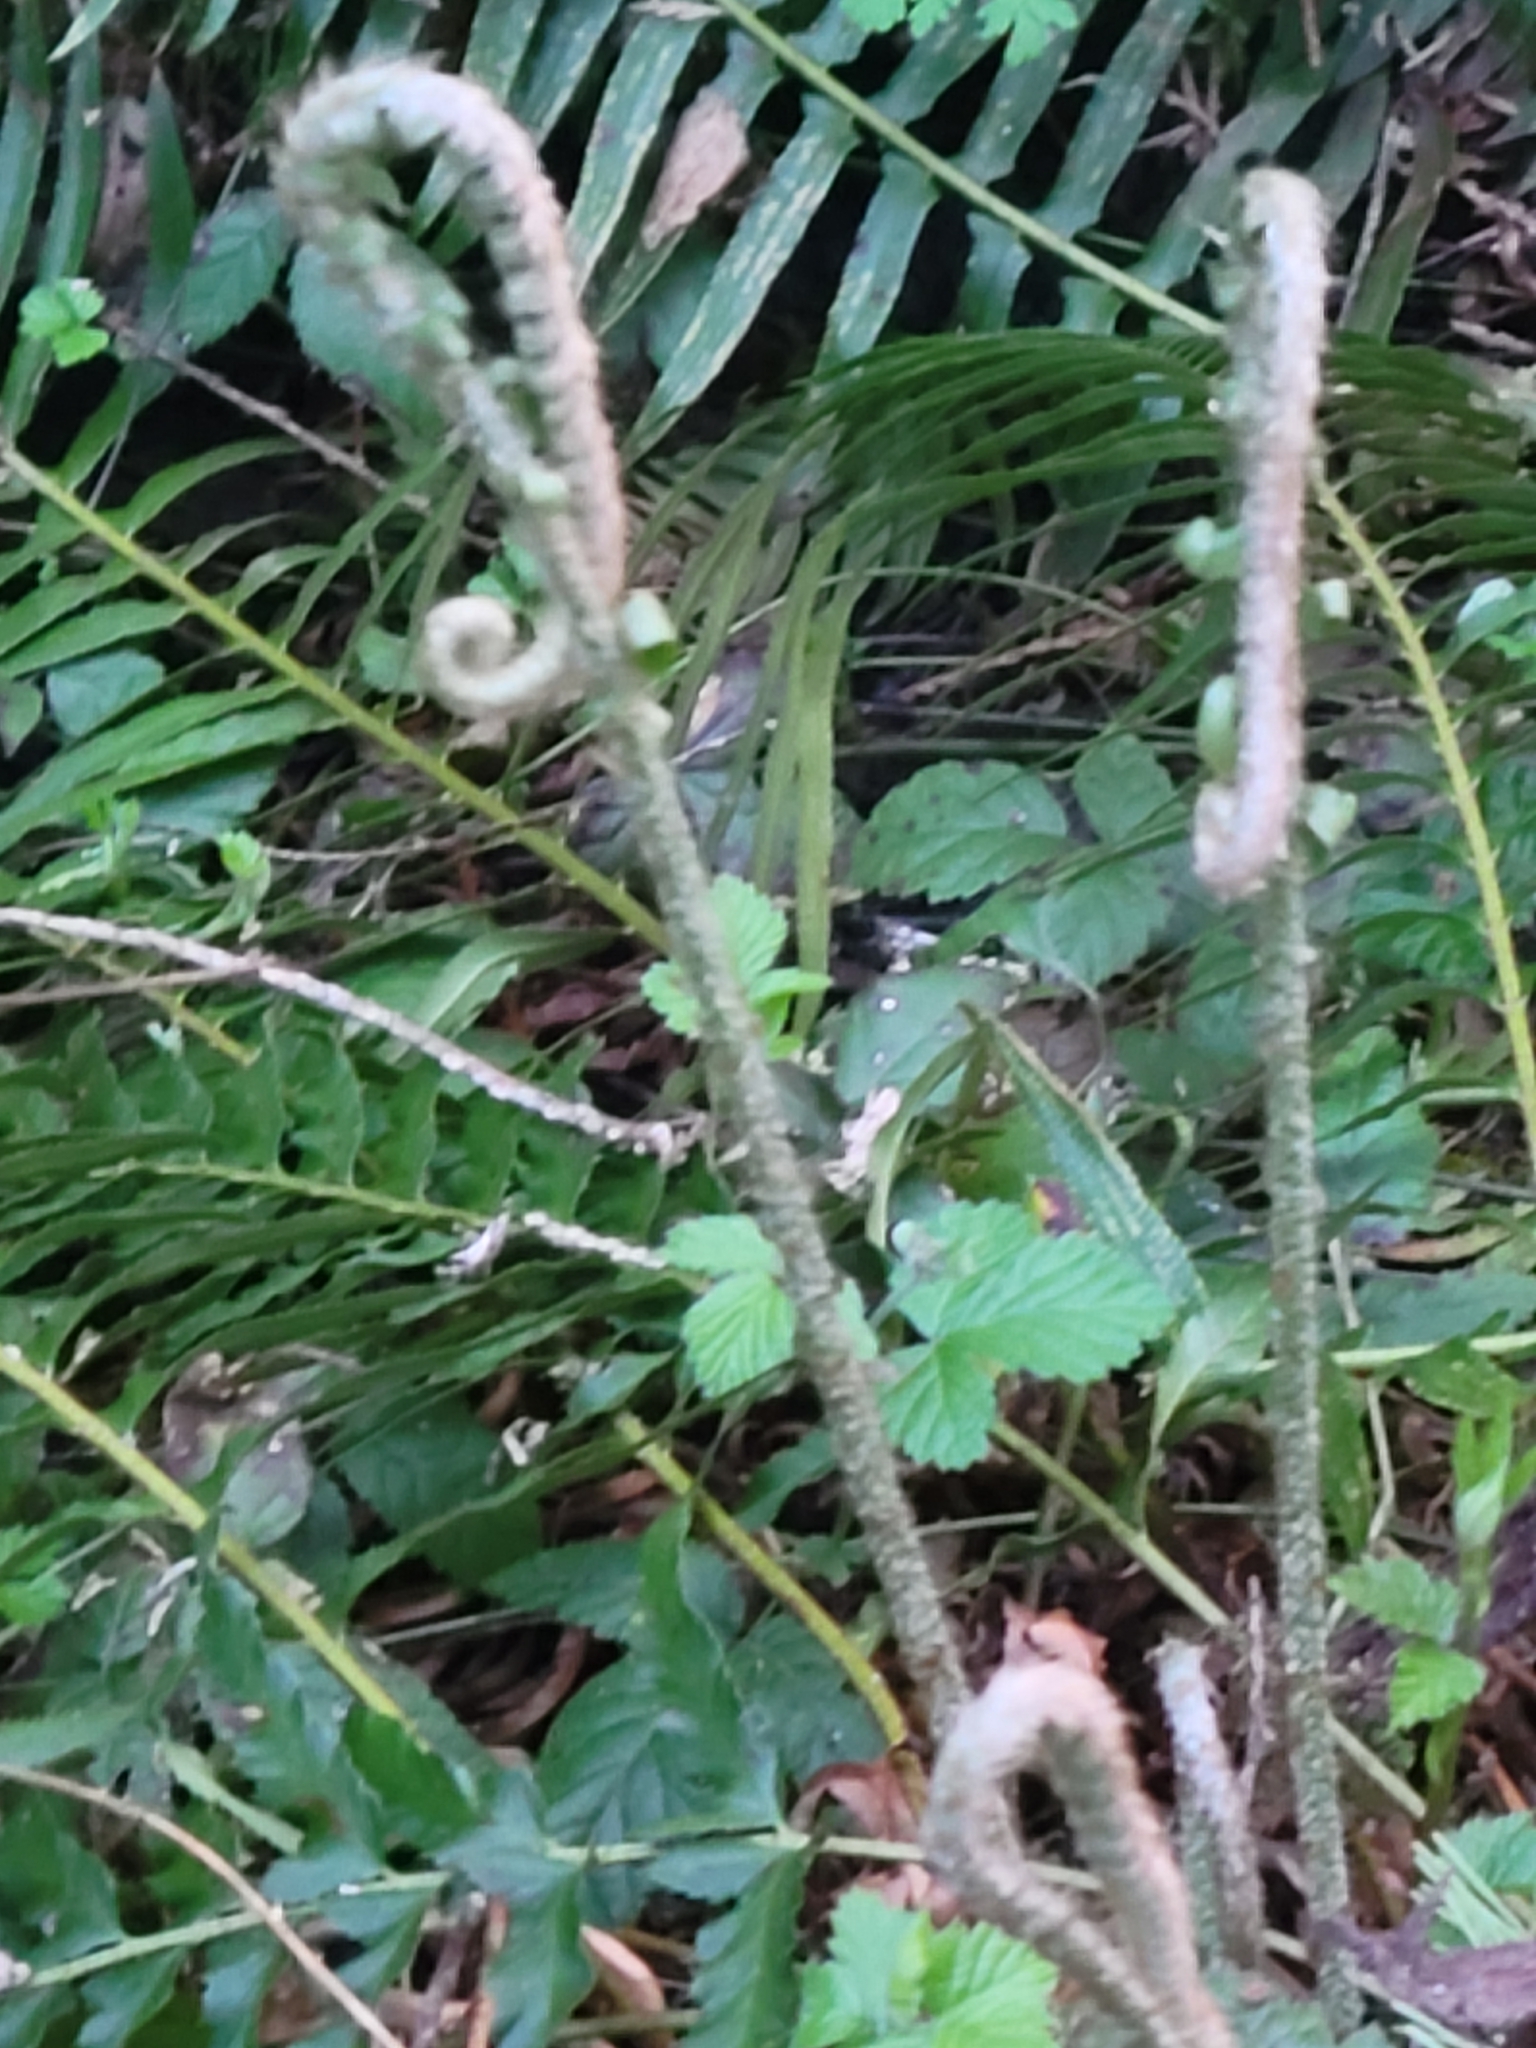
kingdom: Plantae
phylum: Tracheophyta
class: Polypodiopsida
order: Polypodiales
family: Dryopteridaceae
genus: Polystichum
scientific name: Polystichum munitum
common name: Western sword-fern
